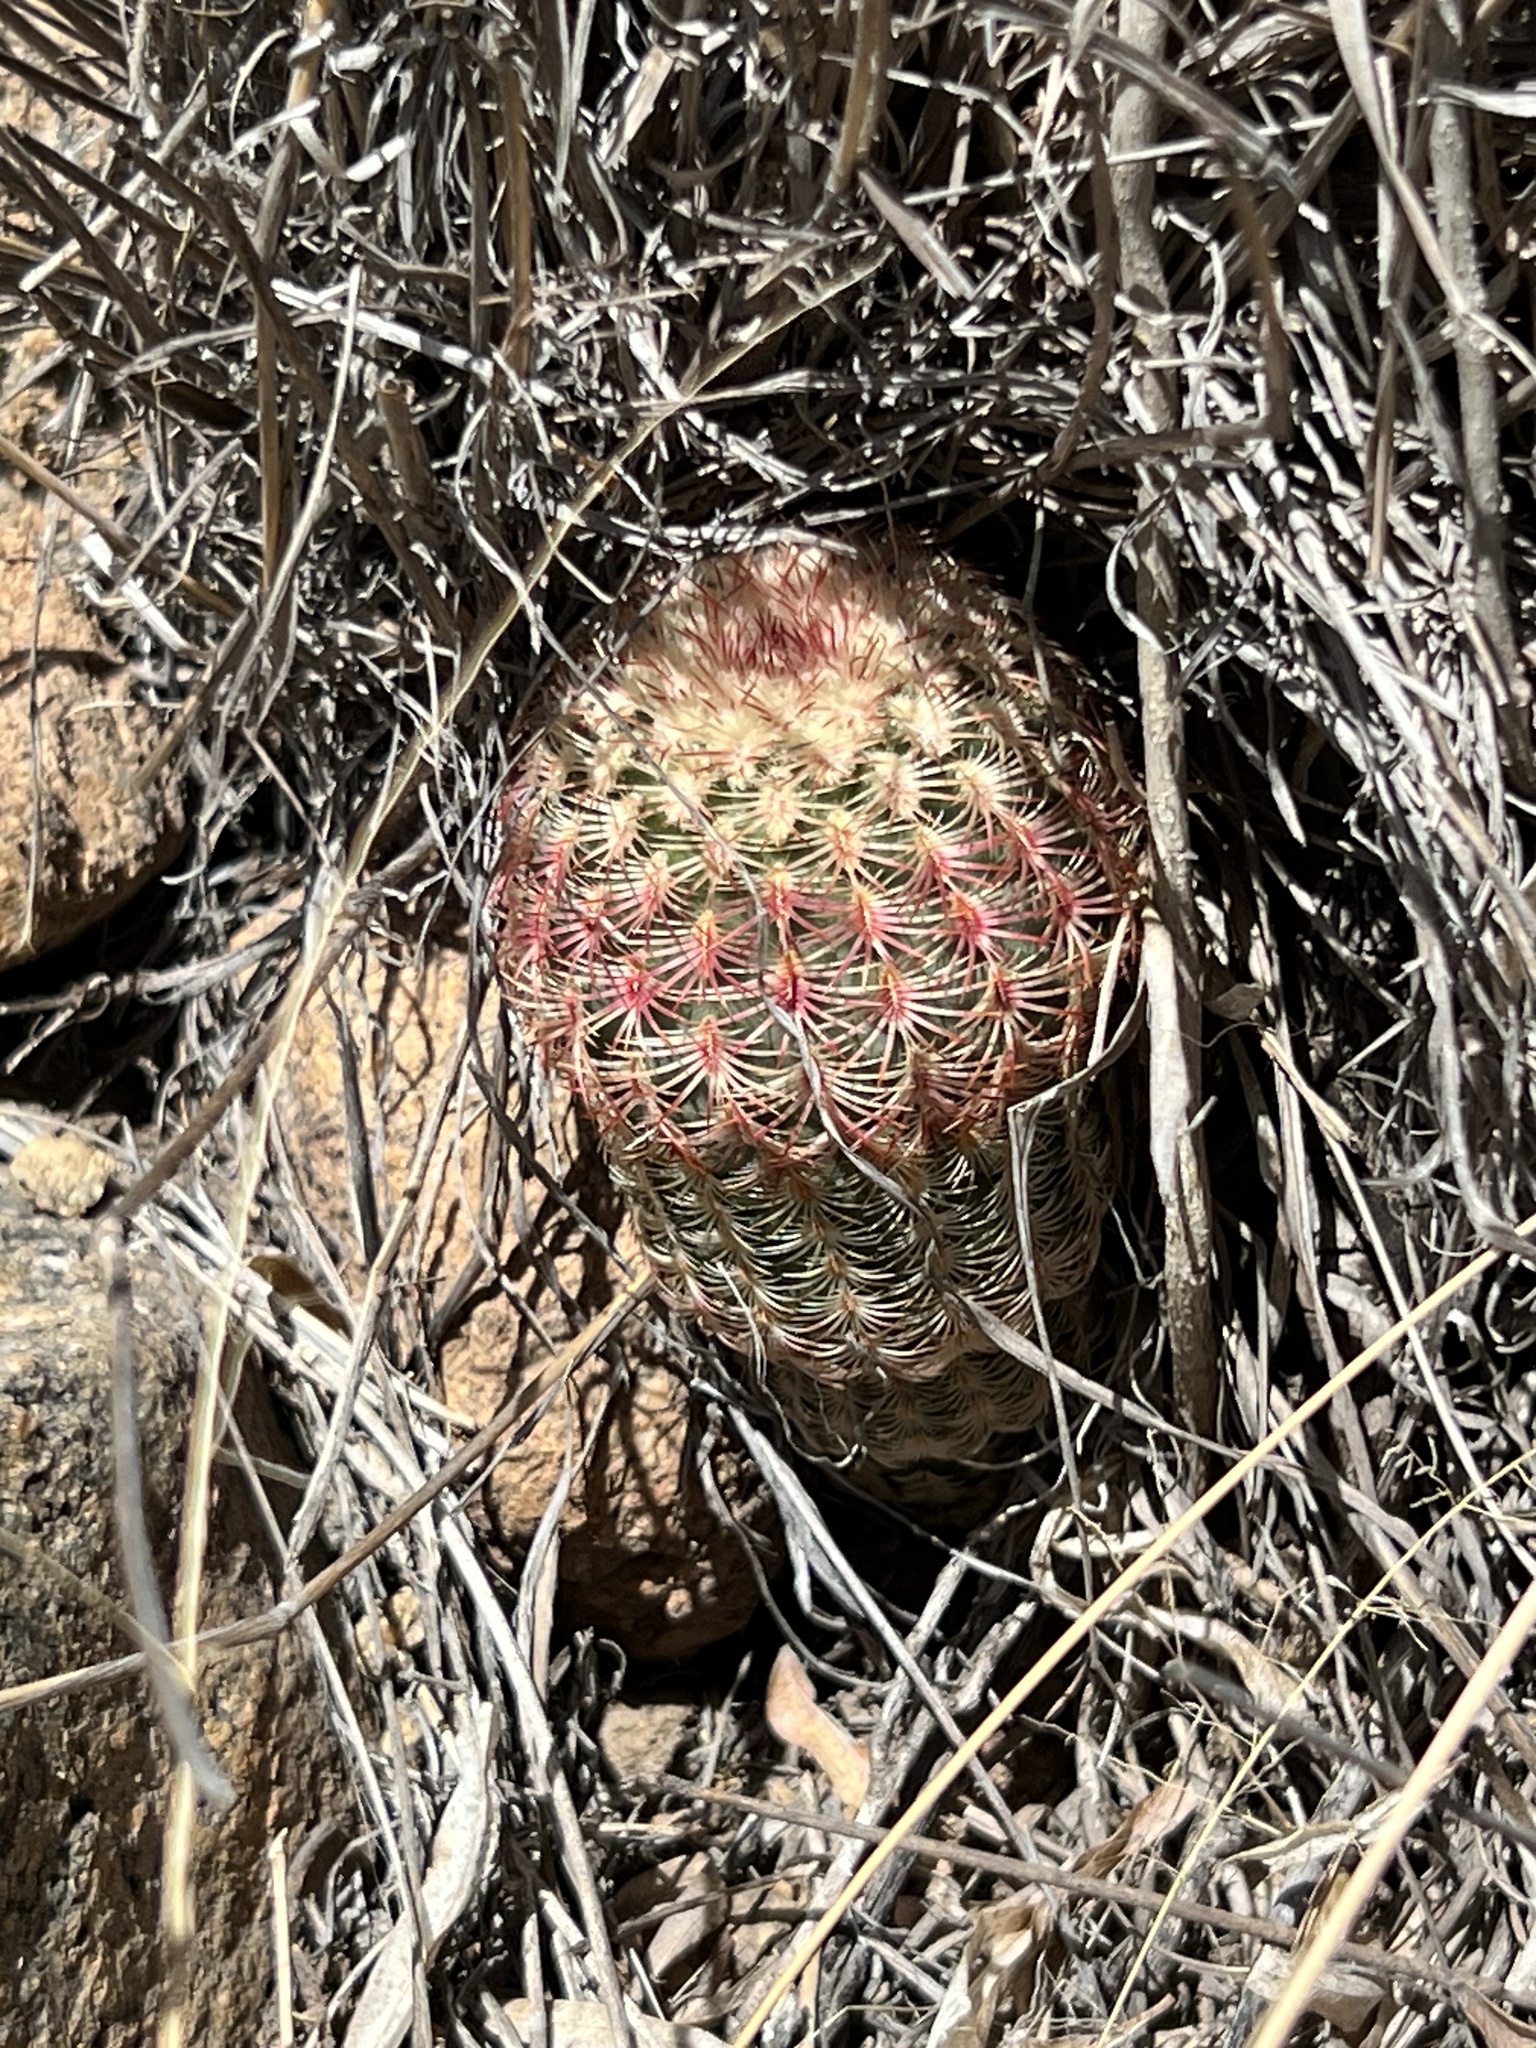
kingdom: Plantae
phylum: Tracheophyta
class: Magnoliopsida
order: Caryophyllales
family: Cactaceae
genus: Echinocereus
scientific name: Echinocereus rigidissimus
